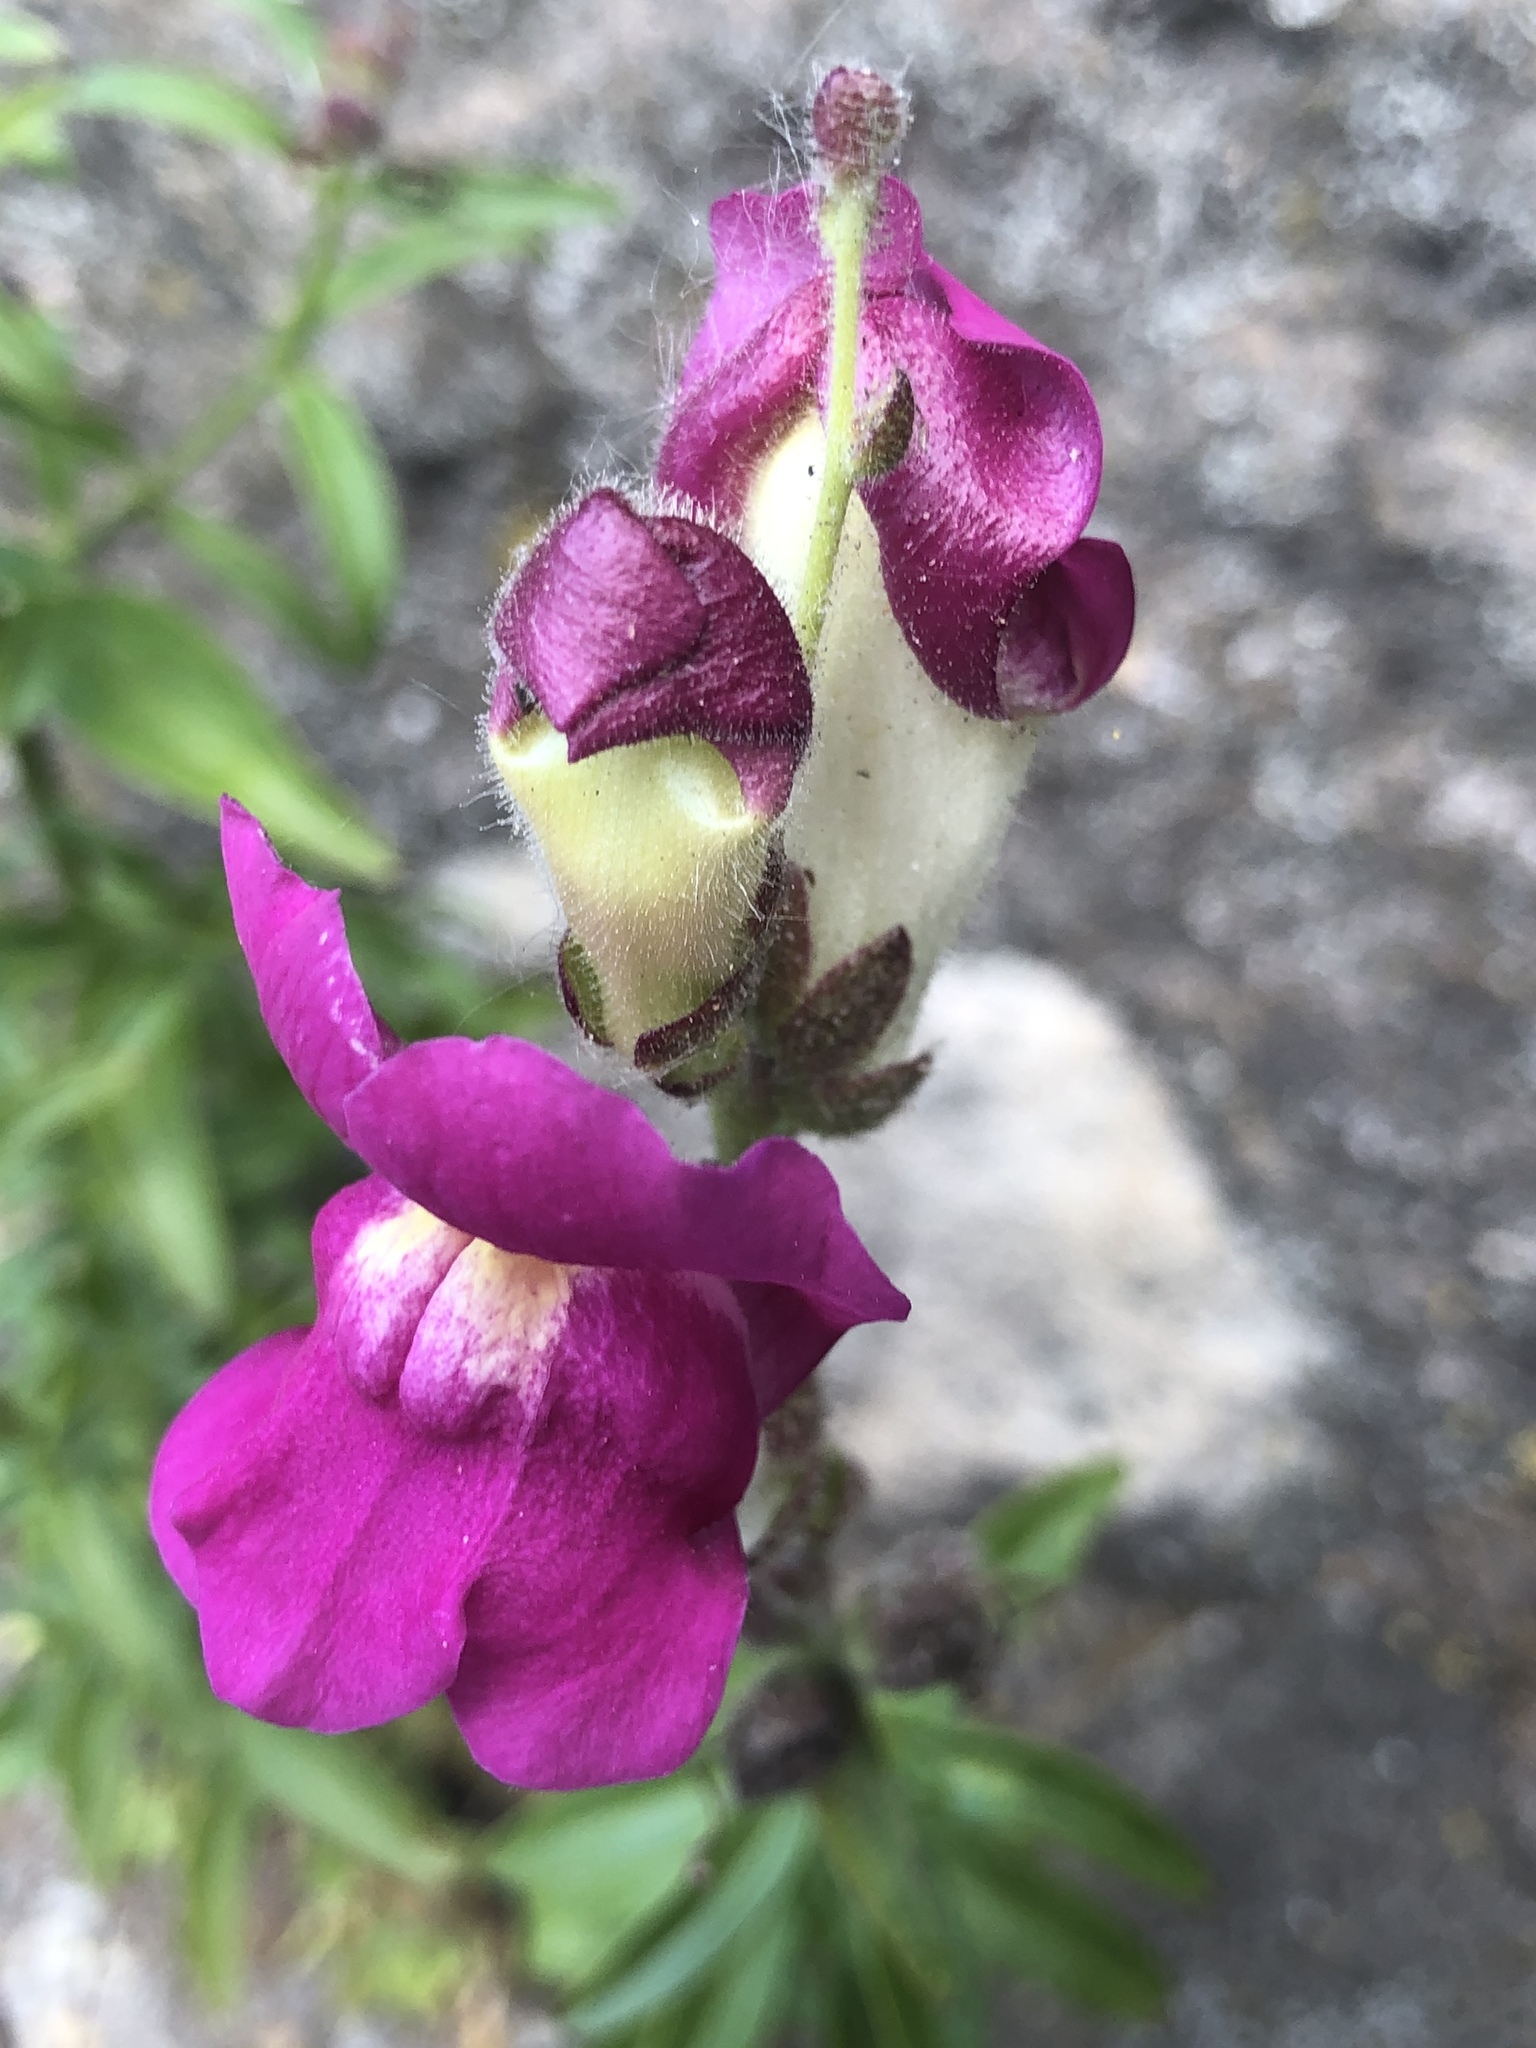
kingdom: Plantae
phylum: Tracheophyta
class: Magnoliopsida
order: Lamiales
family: Plantaginaceae
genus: Antirrhinum
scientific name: Antirrhinum majus
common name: Snapdragon
